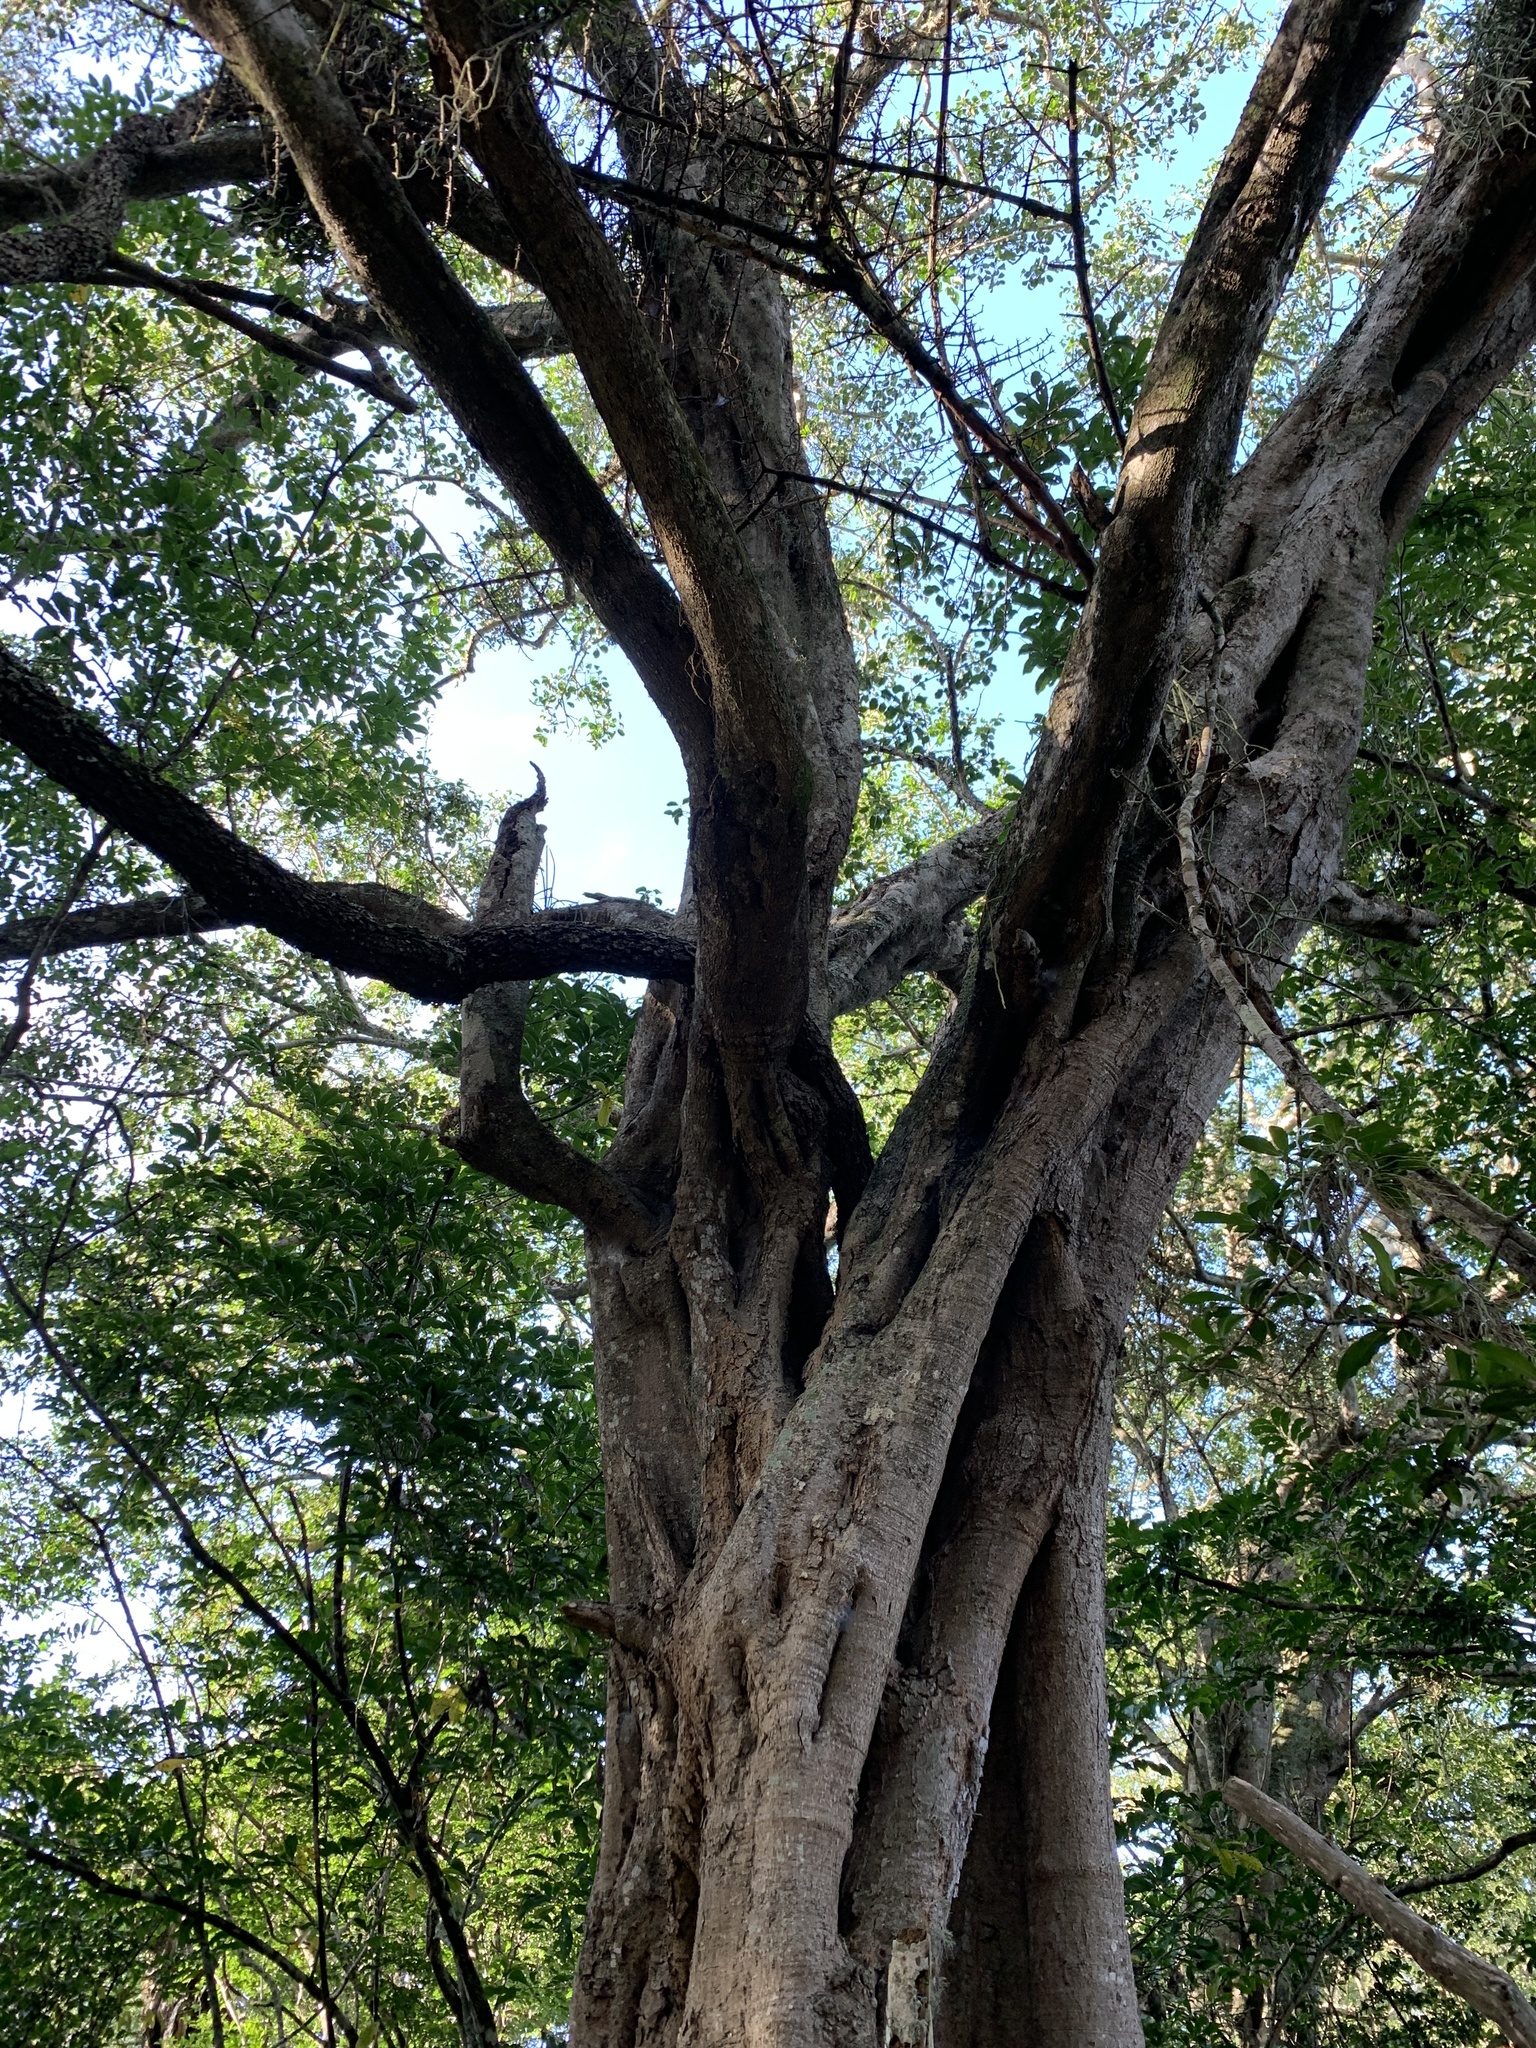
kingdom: Plantae
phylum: Tracheophyta
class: Magnoliopsida
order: Zygophyllales
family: Zygophyllaceae
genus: Balanites
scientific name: Balanites maughamii
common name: Torchwood
